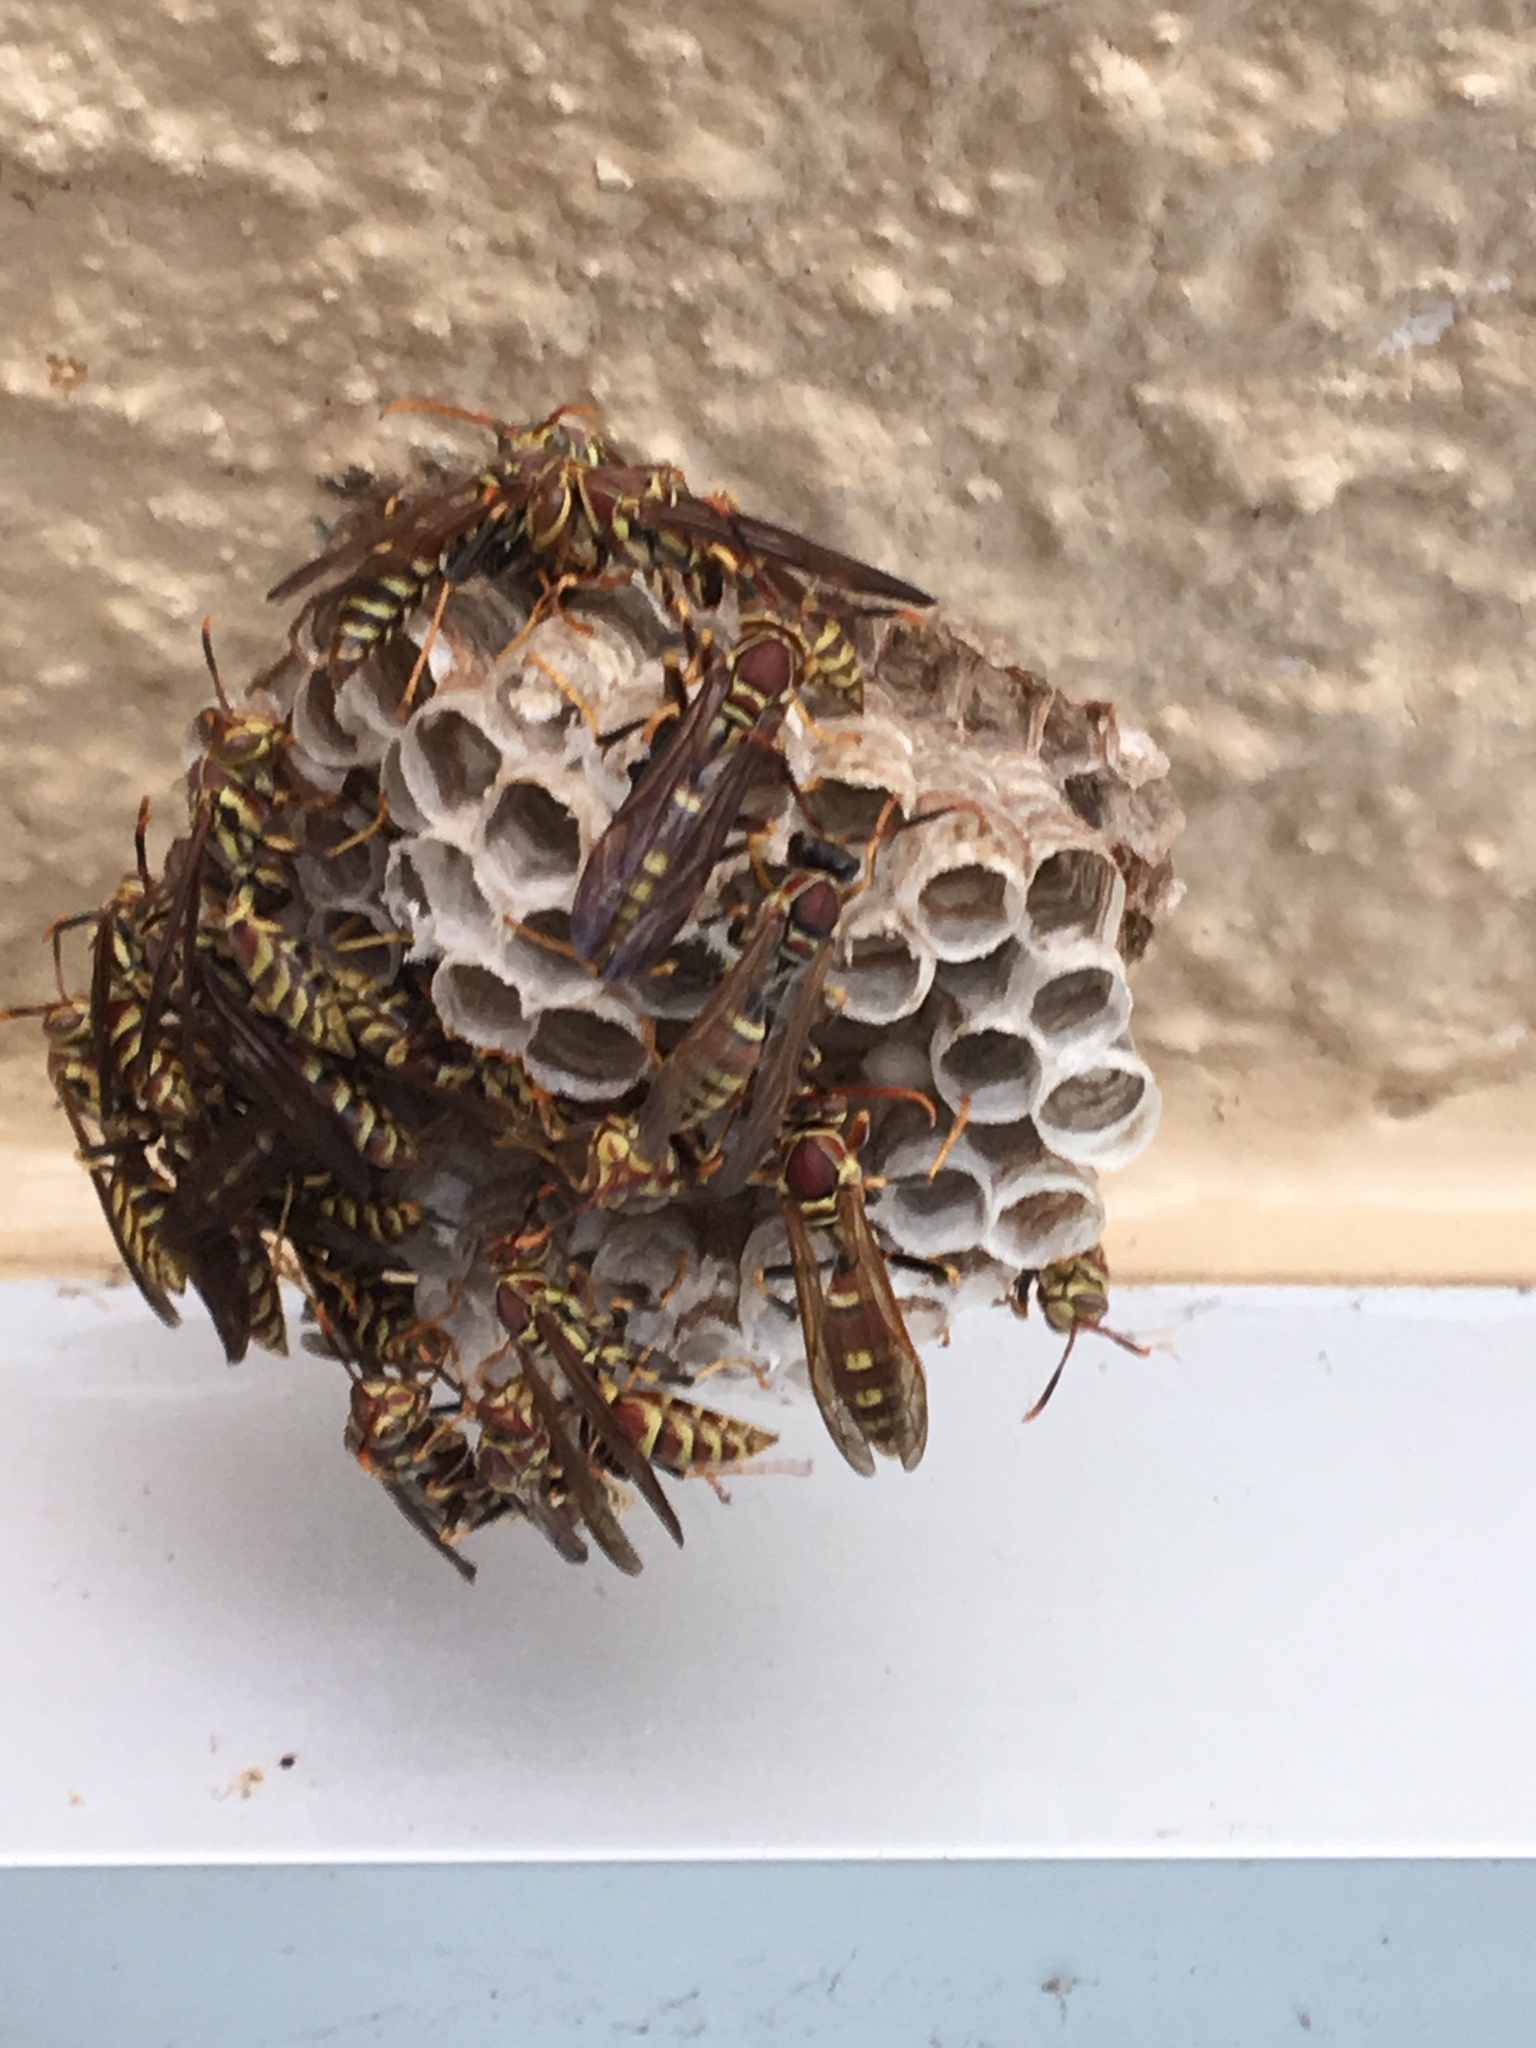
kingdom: Animalia
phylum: Arthropoda
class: Insecta
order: Hymenoptera
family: Eumenidae
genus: Polistes
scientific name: Polistes exclamans
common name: Paper wasp
